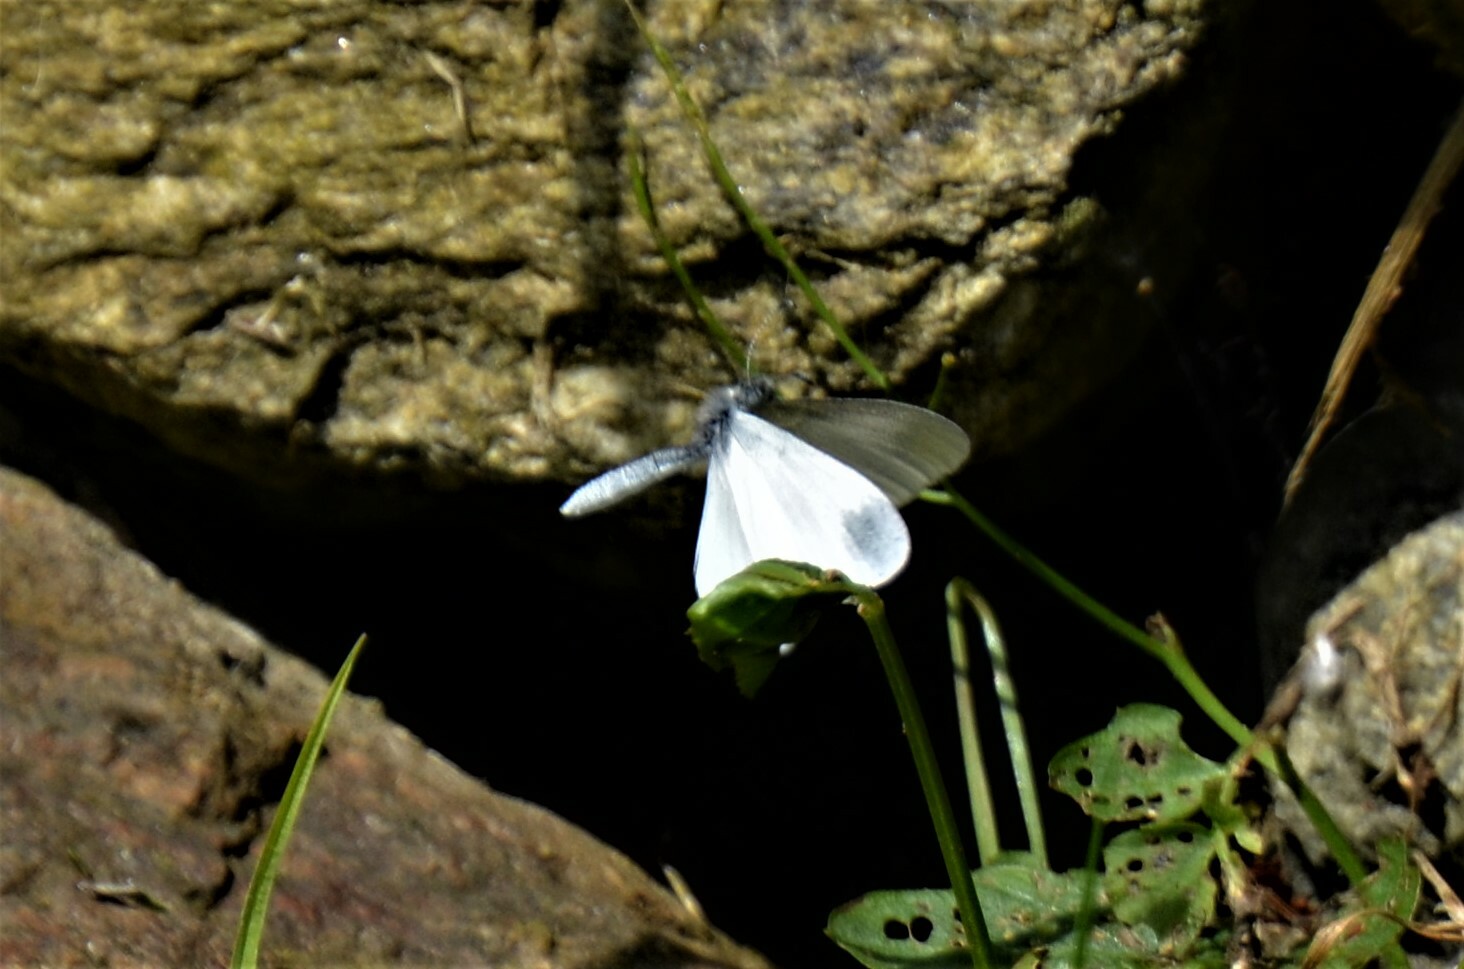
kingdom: Animalia
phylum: Arthropoda
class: Insecta
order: Lepidoptera
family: Pieridae
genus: Leptidea
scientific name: Leptidea
